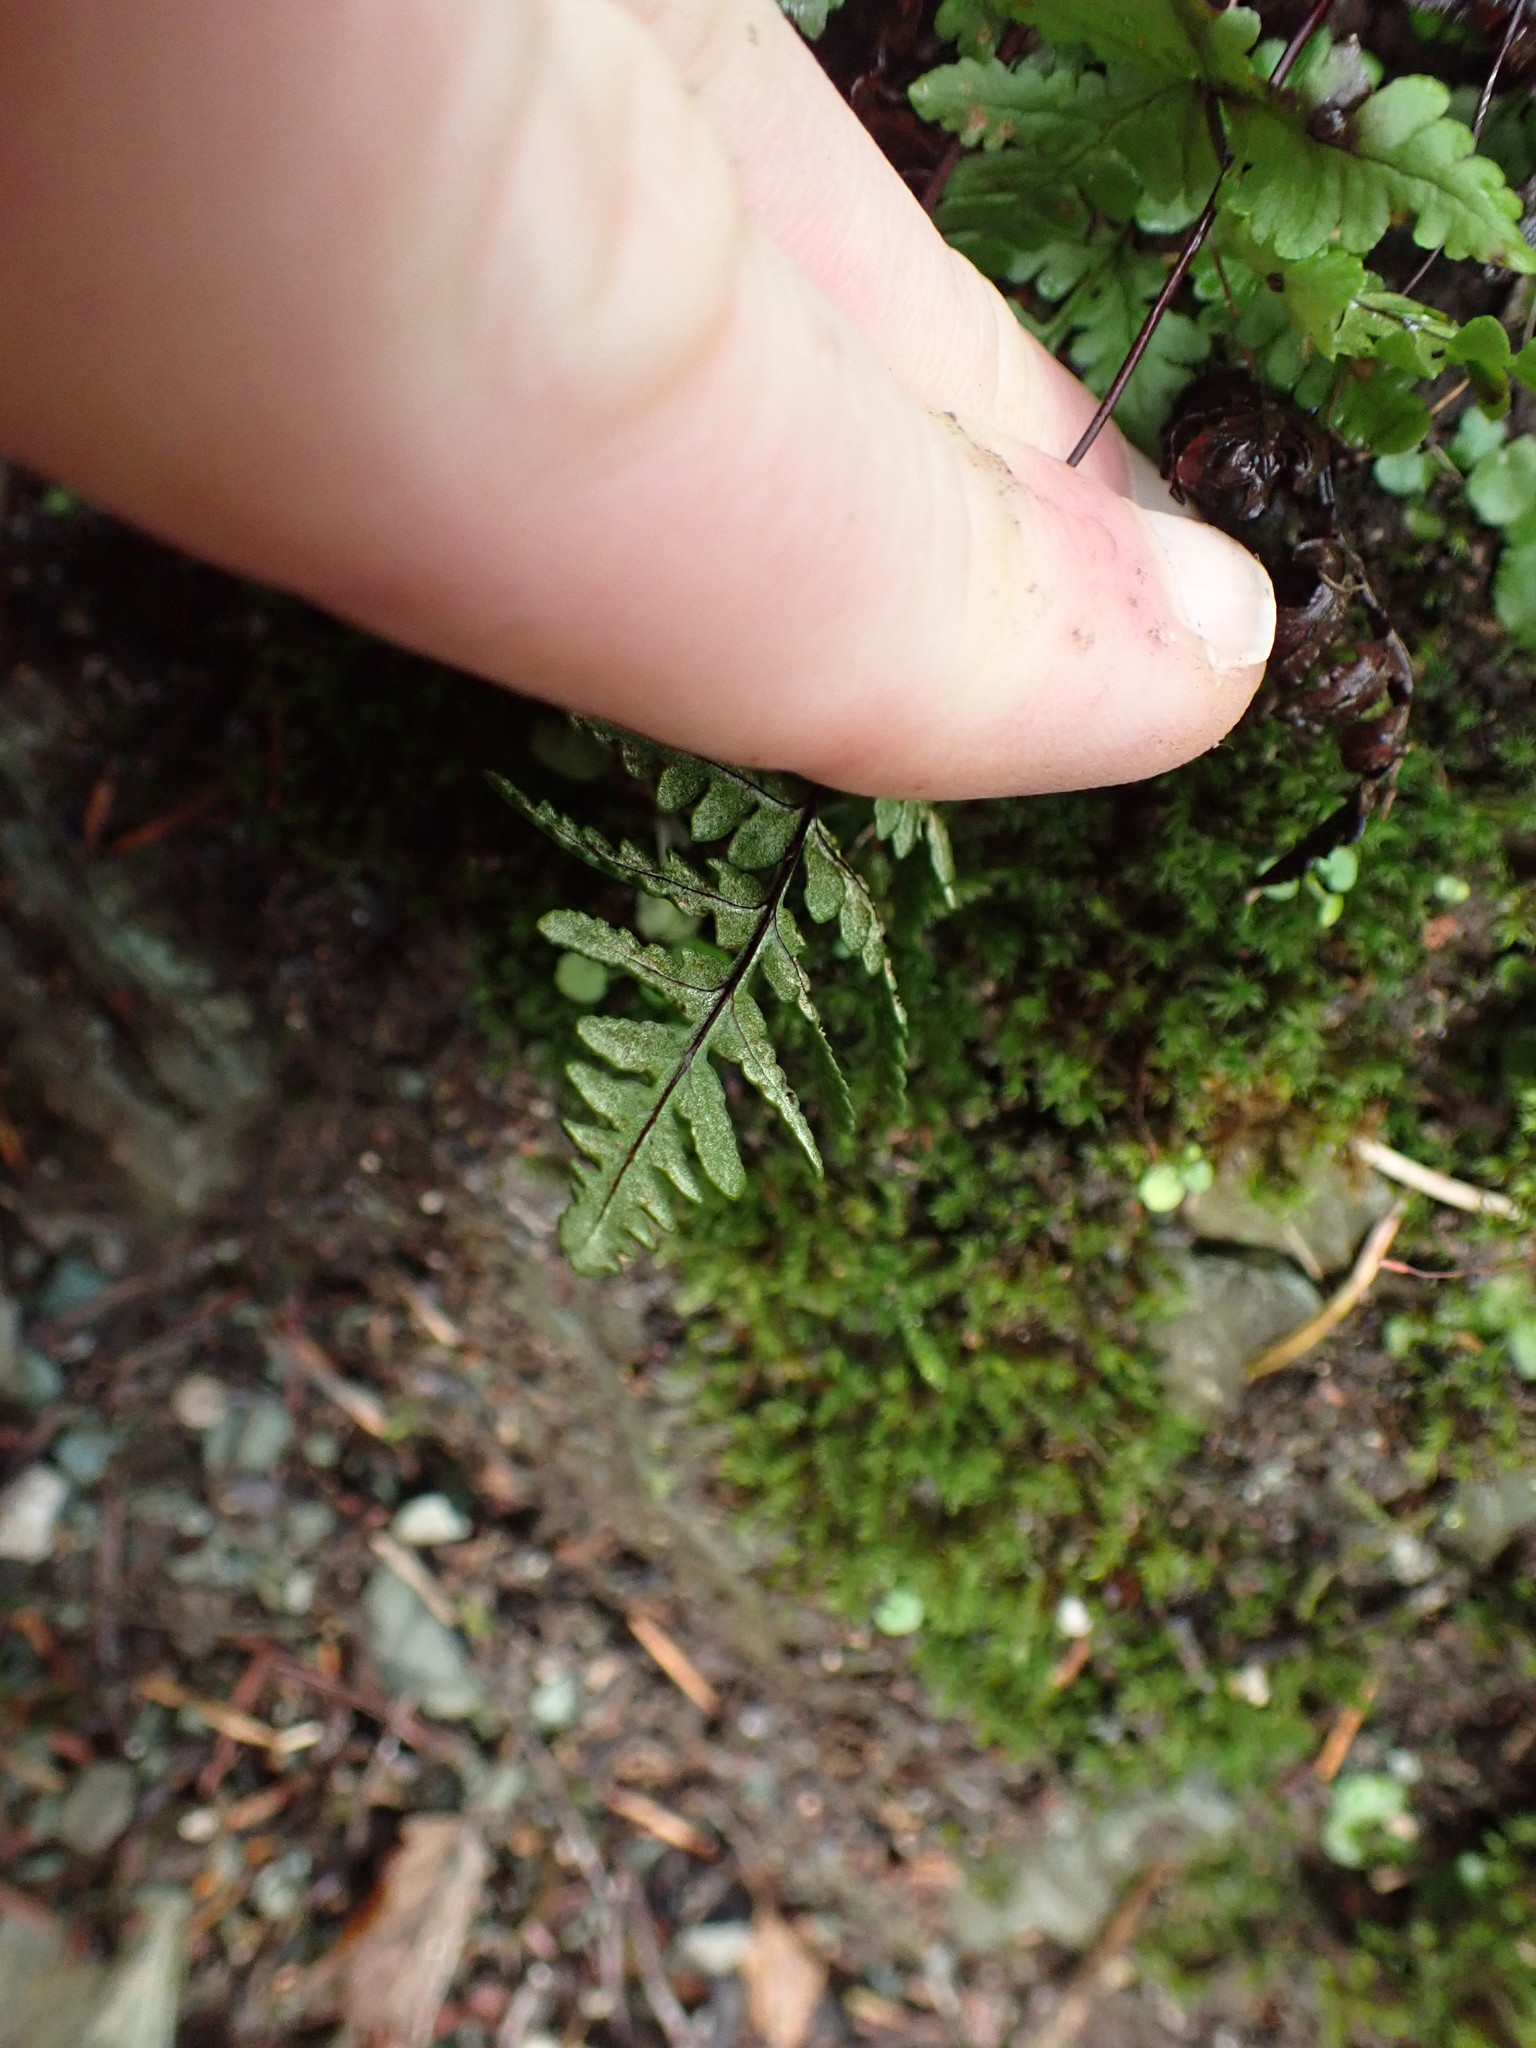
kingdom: Plantae
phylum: Tracheophyta
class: Polypodiopsida
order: Polypodiales
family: Pteridaceae
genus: Pentagramma
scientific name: Pentagramma triangularis
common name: Gold fern
